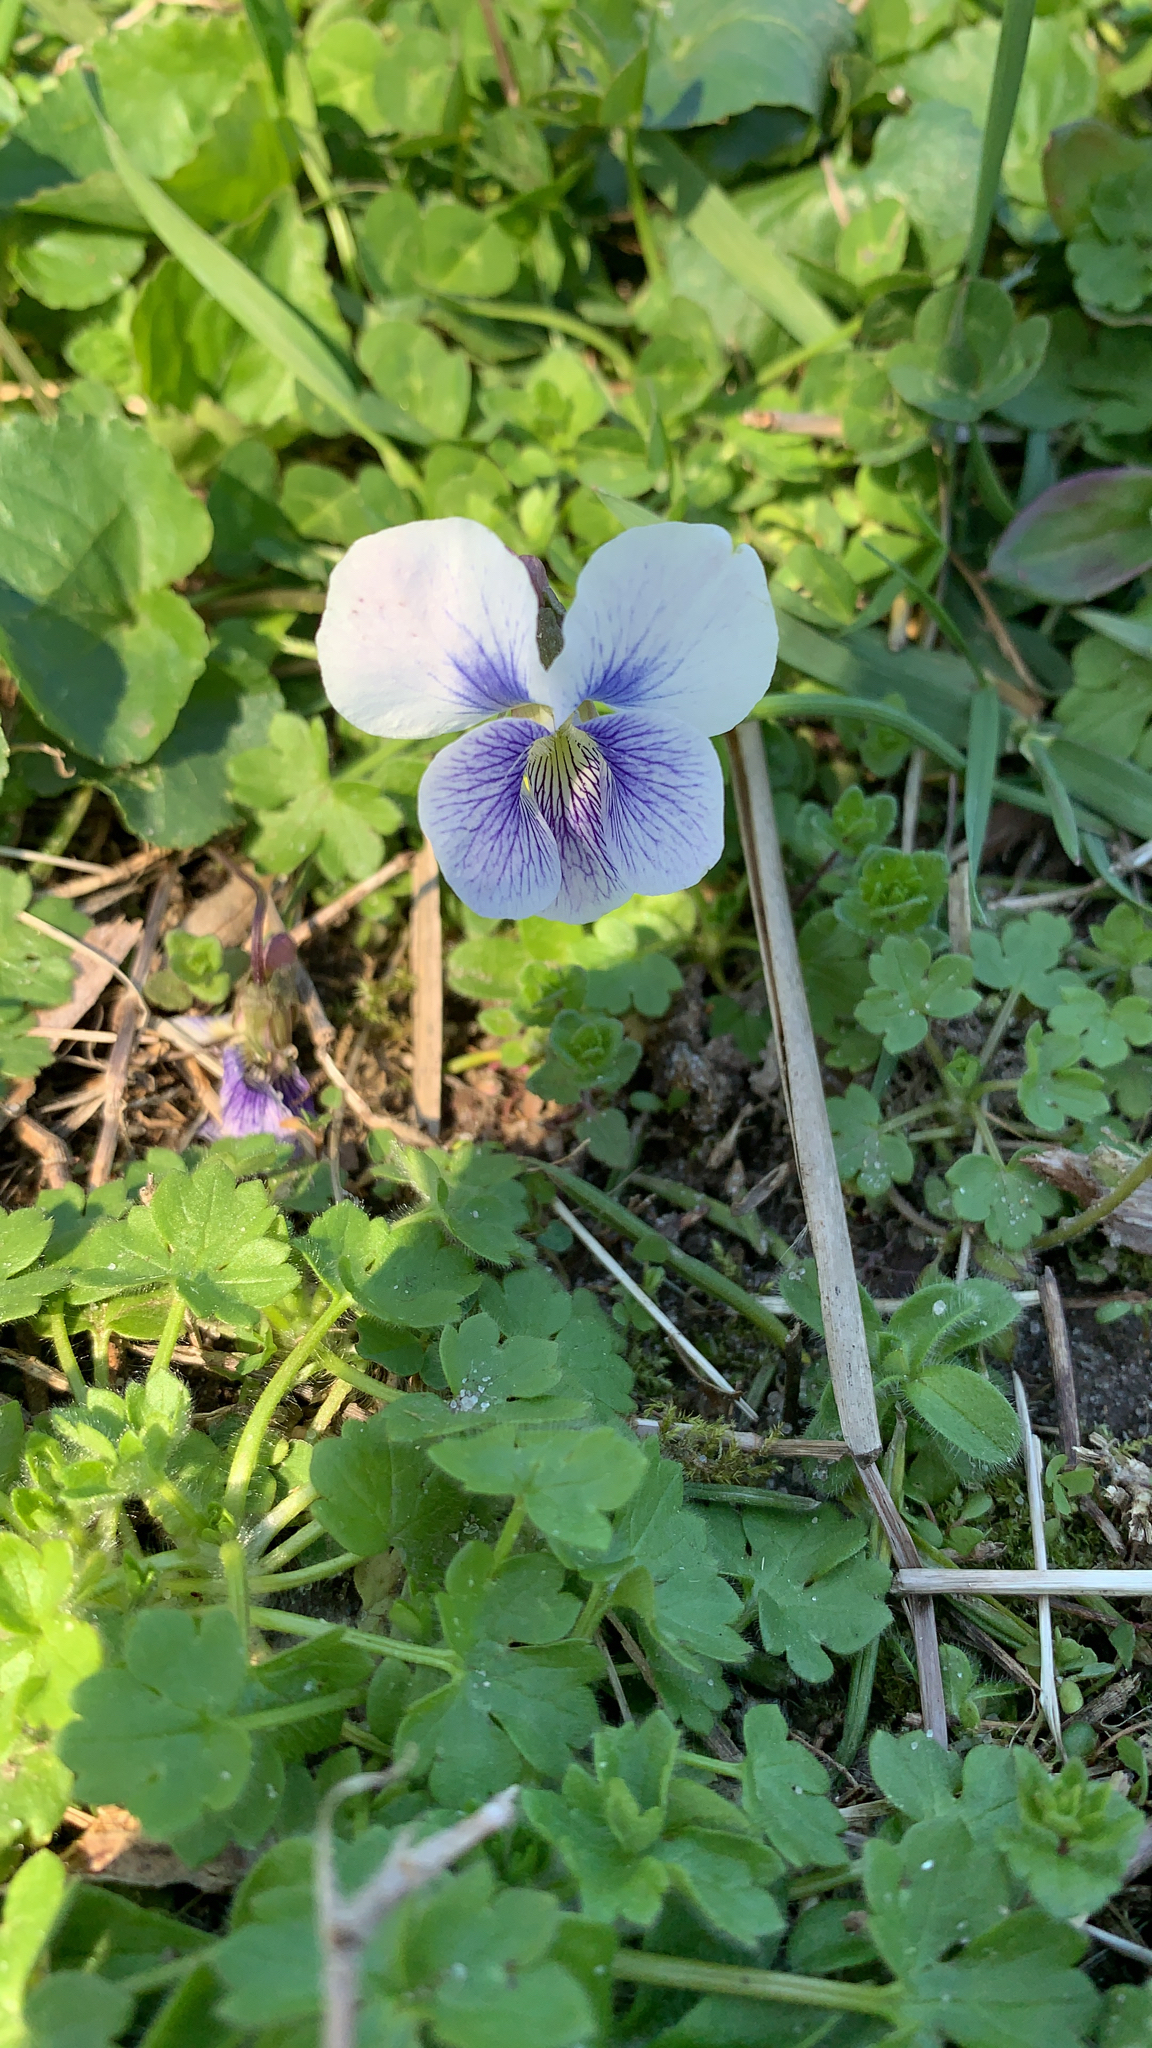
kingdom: Plantae
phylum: Tracheophyta
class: Magnoliopsida
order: Malpighiales
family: Violaceae
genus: Viola
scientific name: Viola sororia
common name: Dooryard violet
